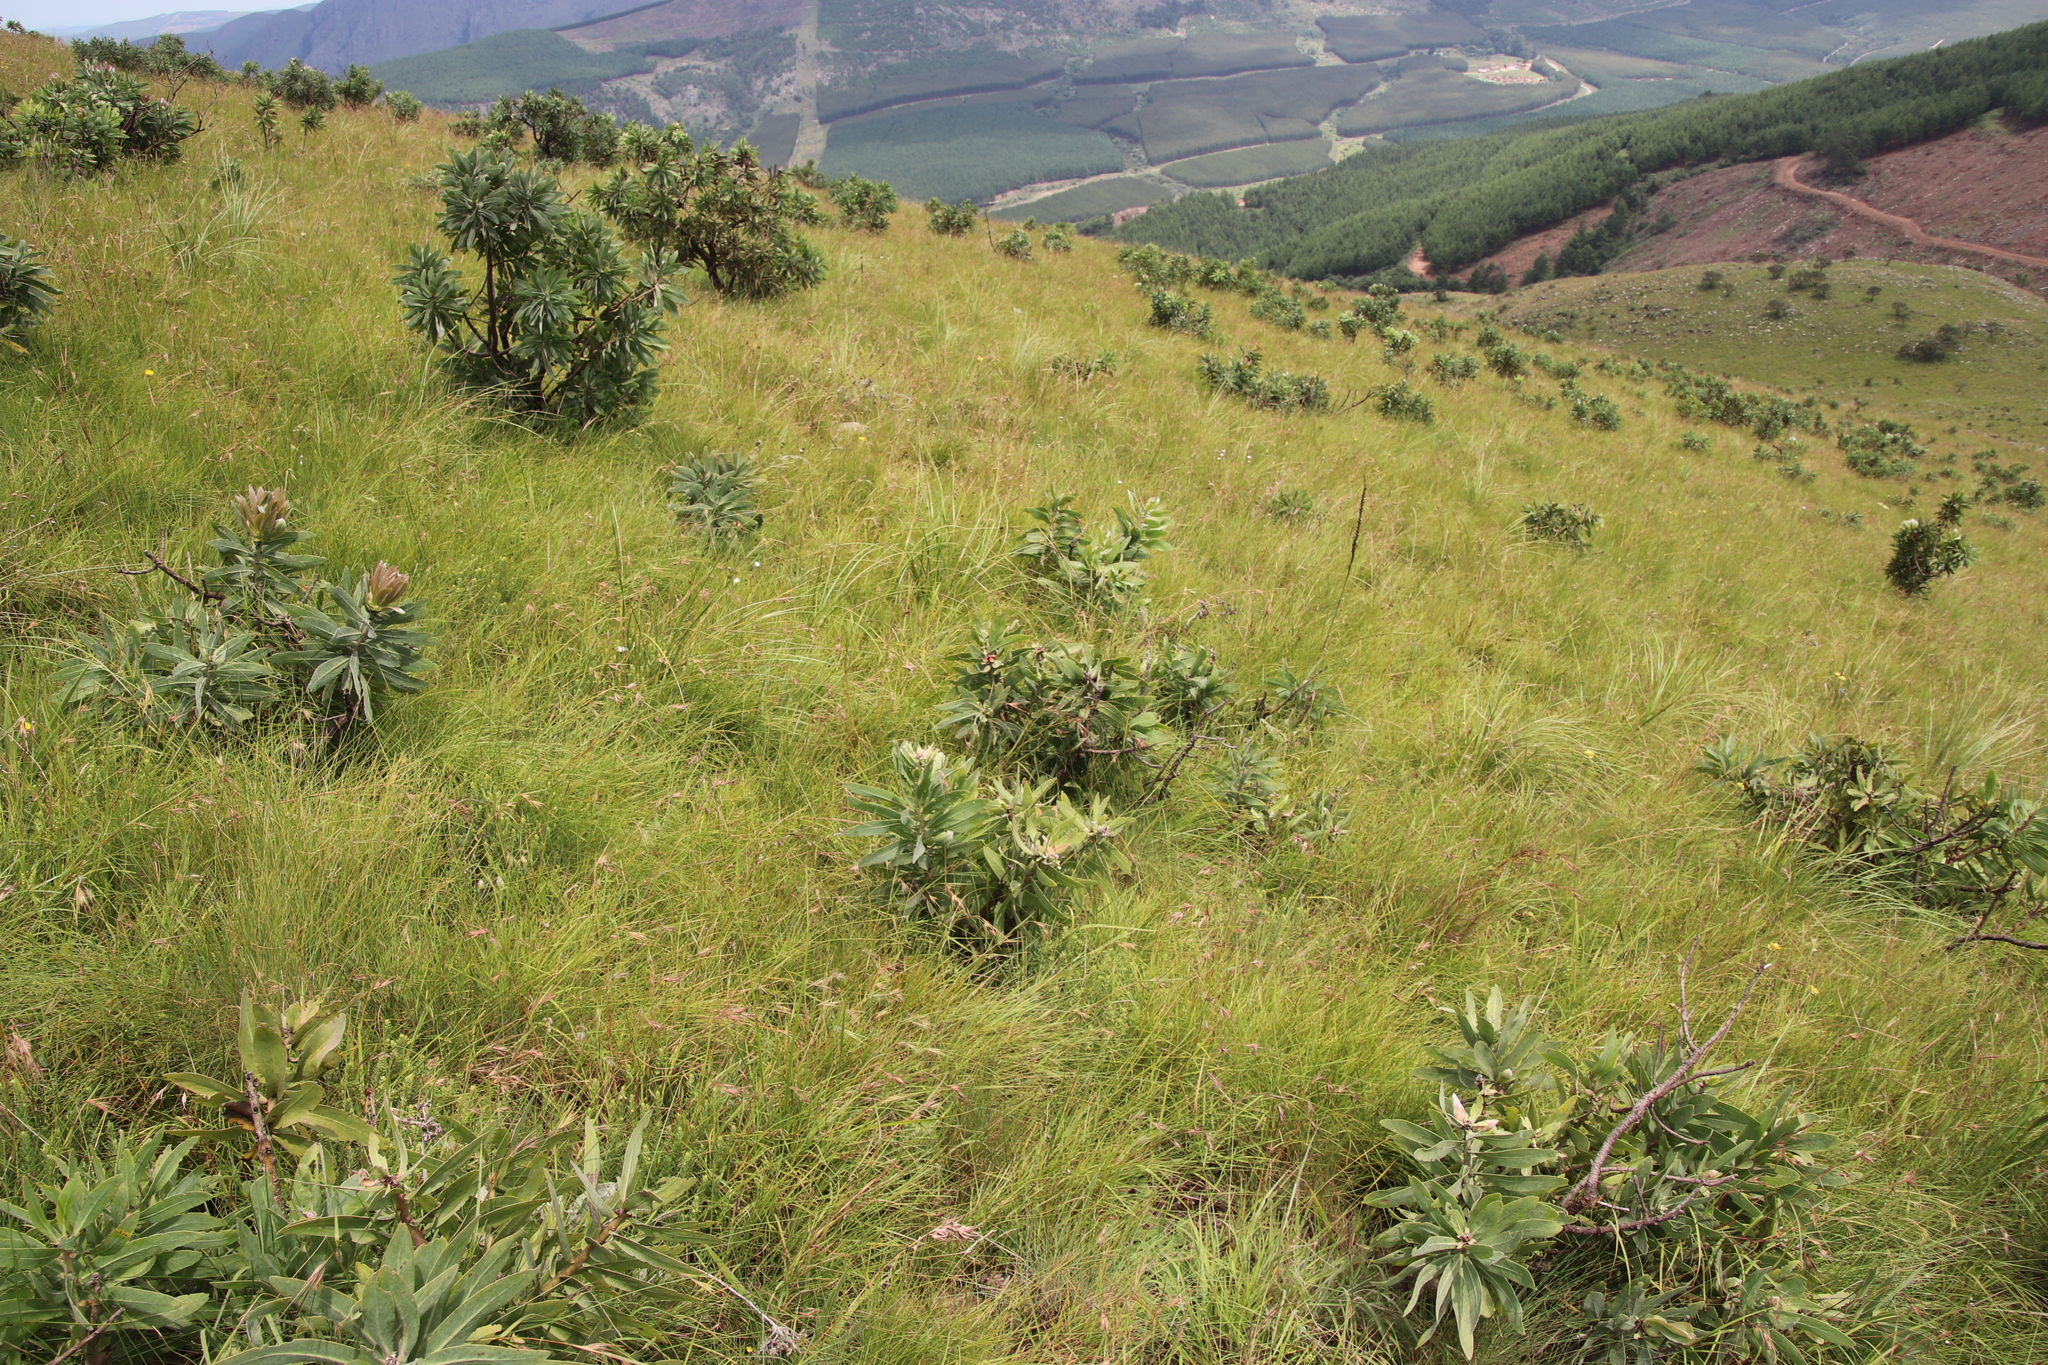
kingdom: Plantae
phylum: Tracheophyta
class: Magnoliopsida
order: Proteales
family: Proteaceae
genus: Protea
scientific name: Protea gaguedi
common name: African protea
